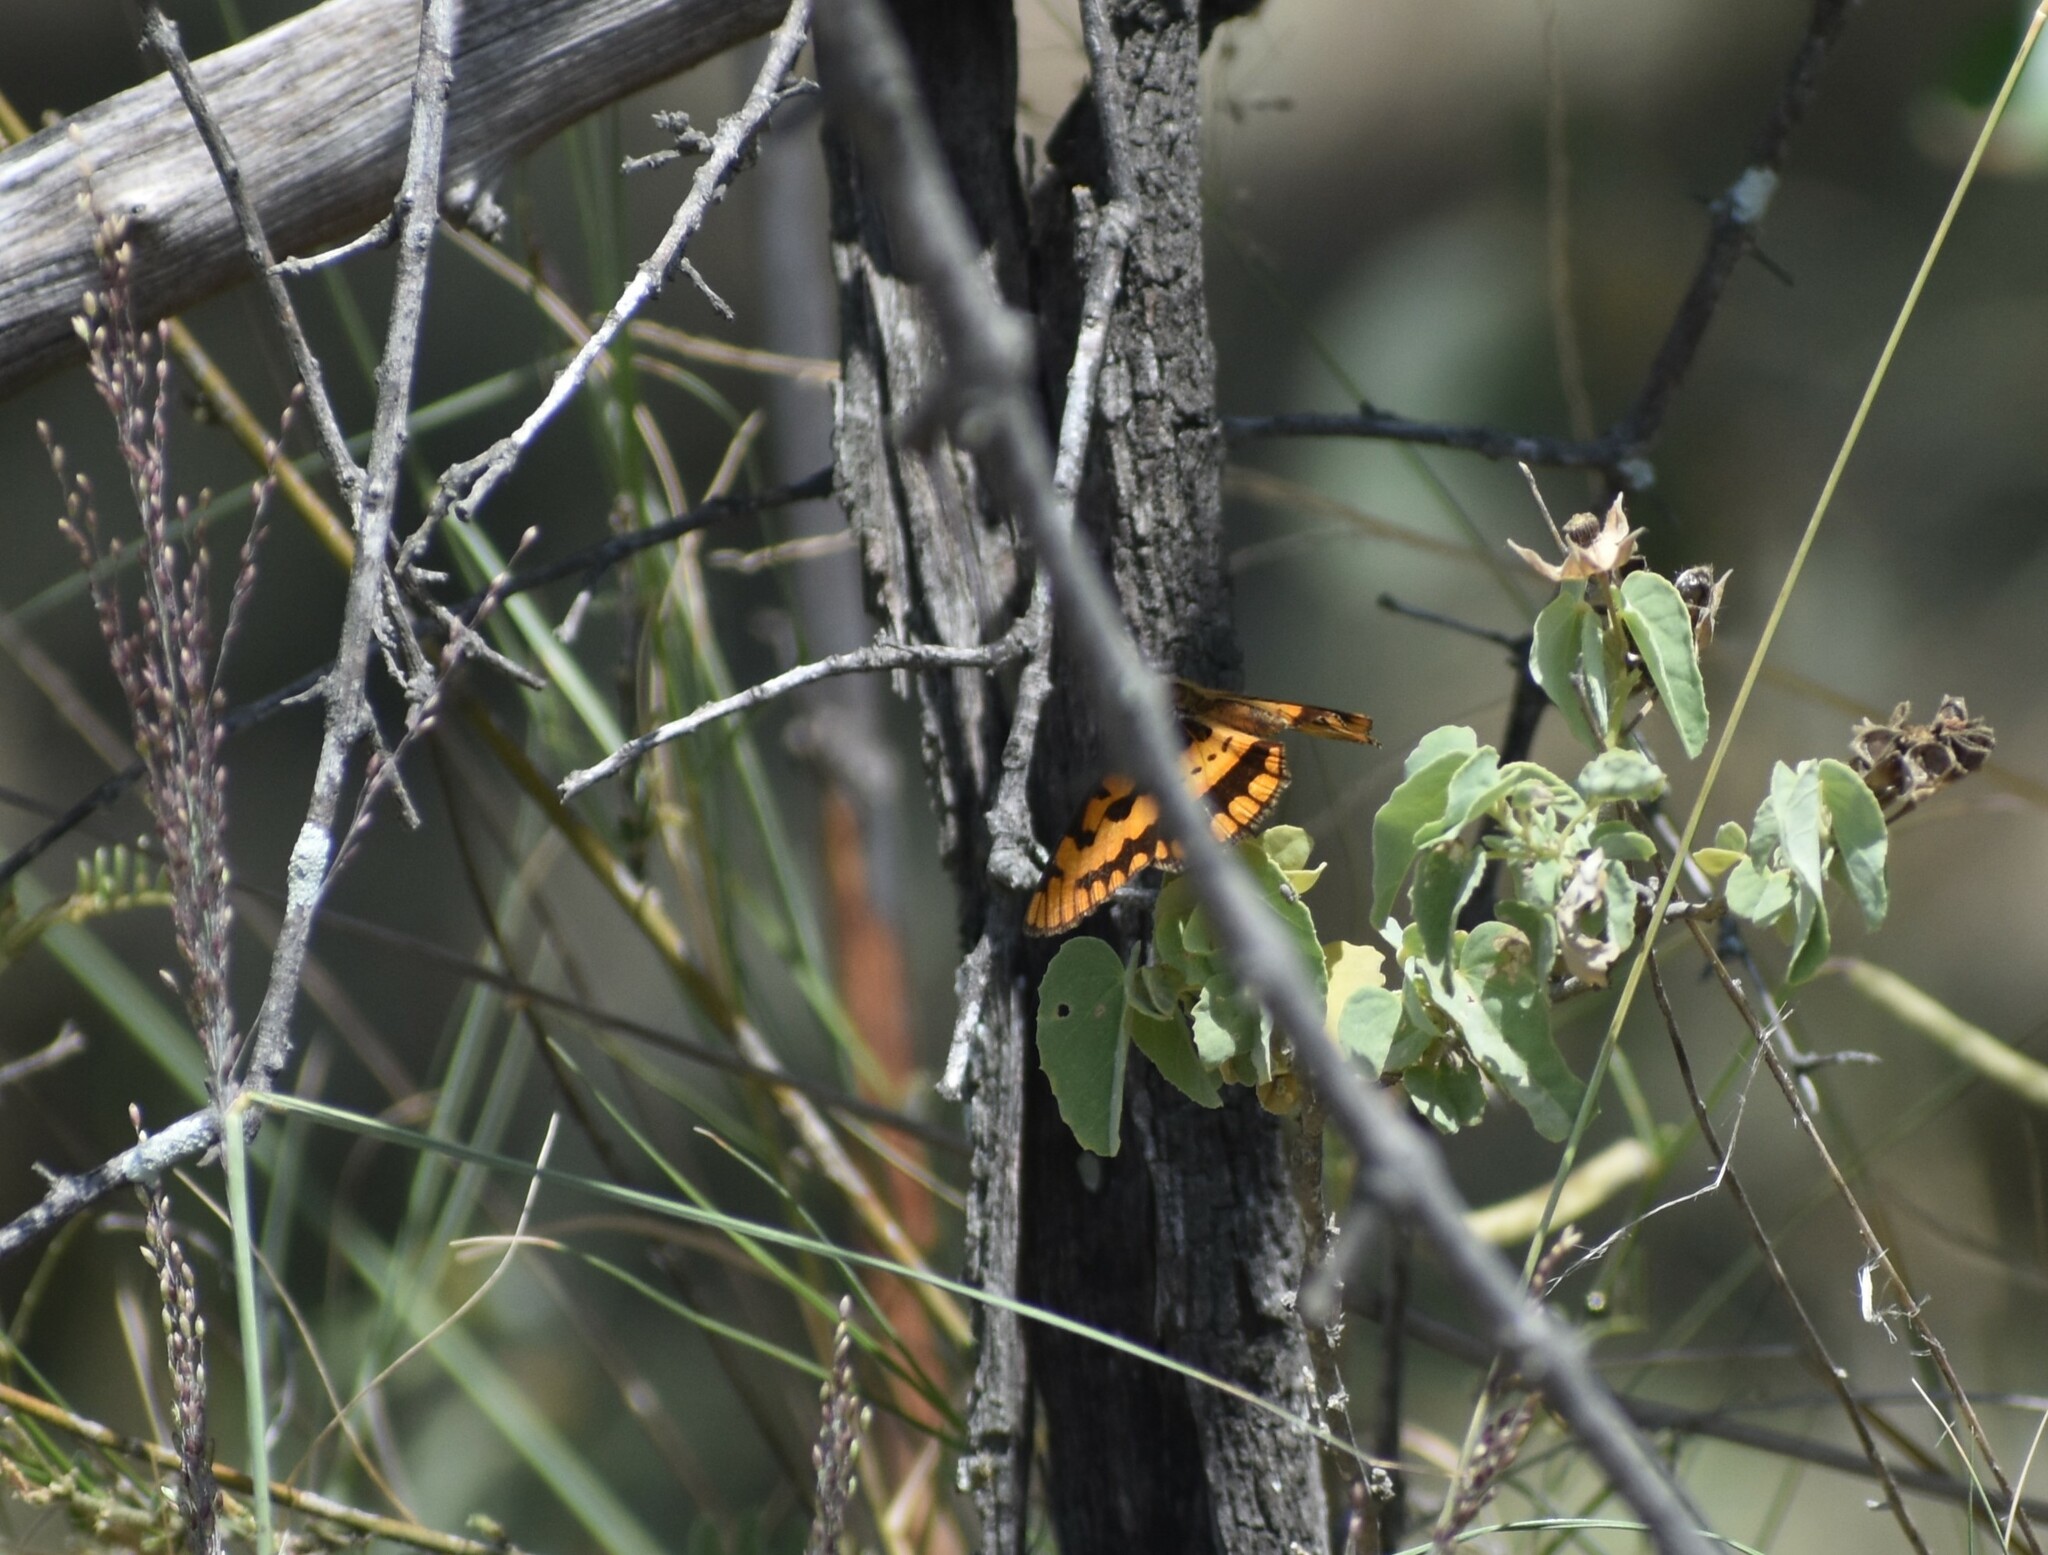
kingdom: Animalia
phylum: Arthropoda
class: Insecta
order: Lepidoptera
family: Nymphalidae
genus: Byblia
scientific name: Byblia ilithyia
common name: Spotted joker
